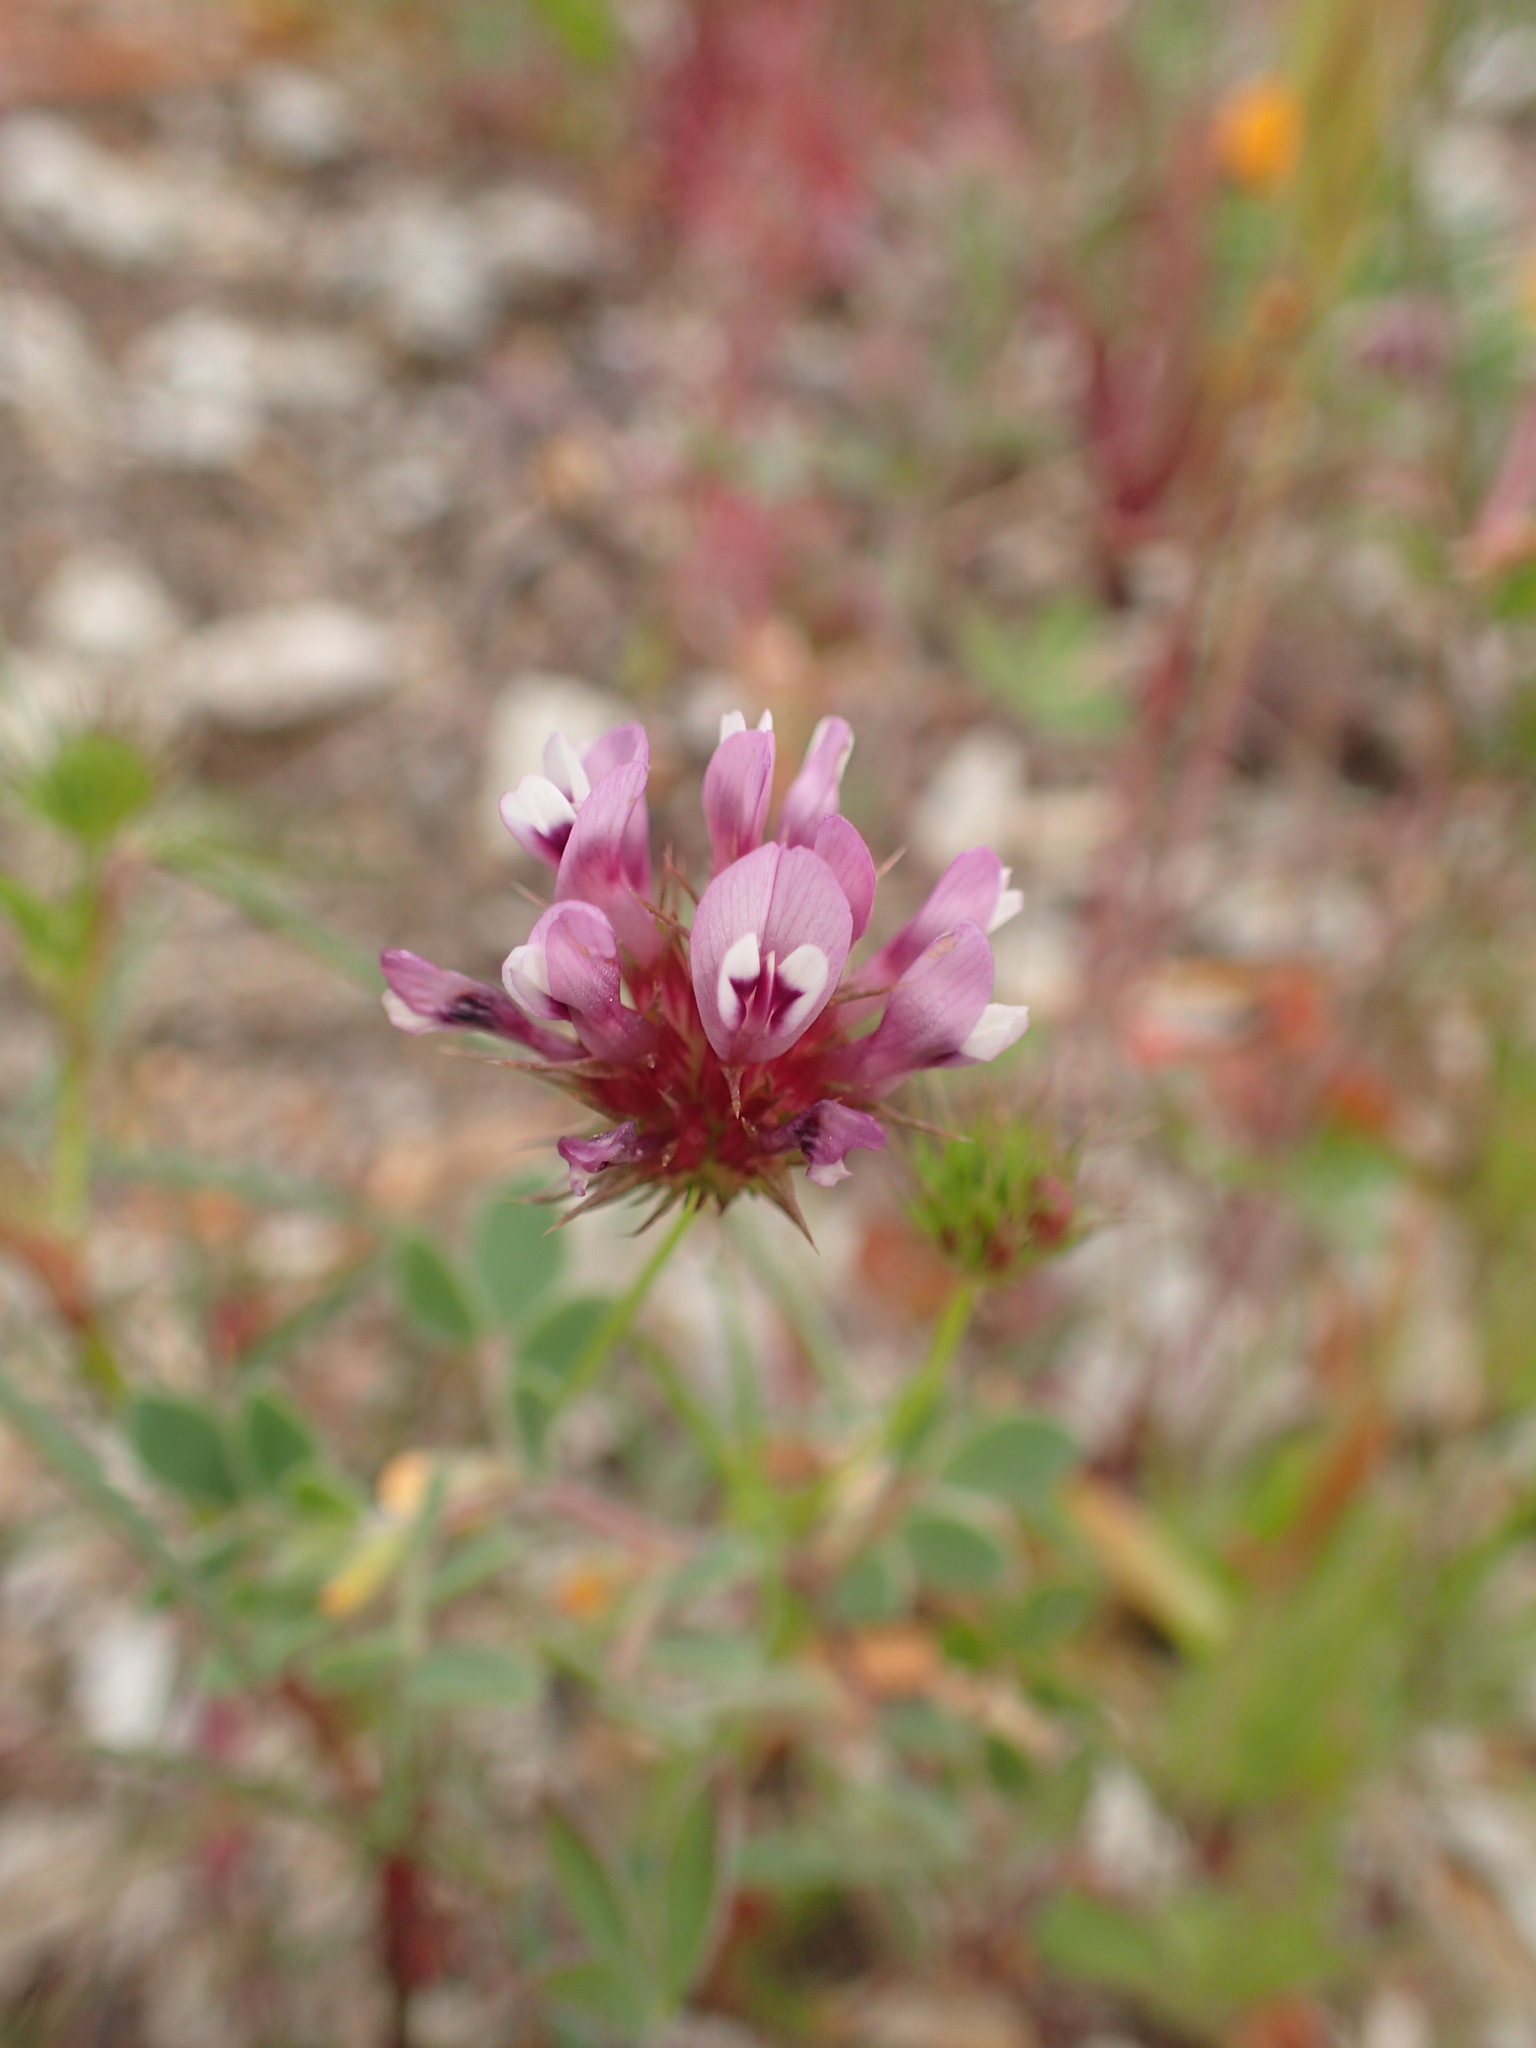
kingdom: Plantae
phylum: Tracheophyta
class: Magnoliopsida
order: Fabales
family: Fabaceae
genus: Trifolium
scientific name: Trifolium willdenovii
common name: Tomcat clover
